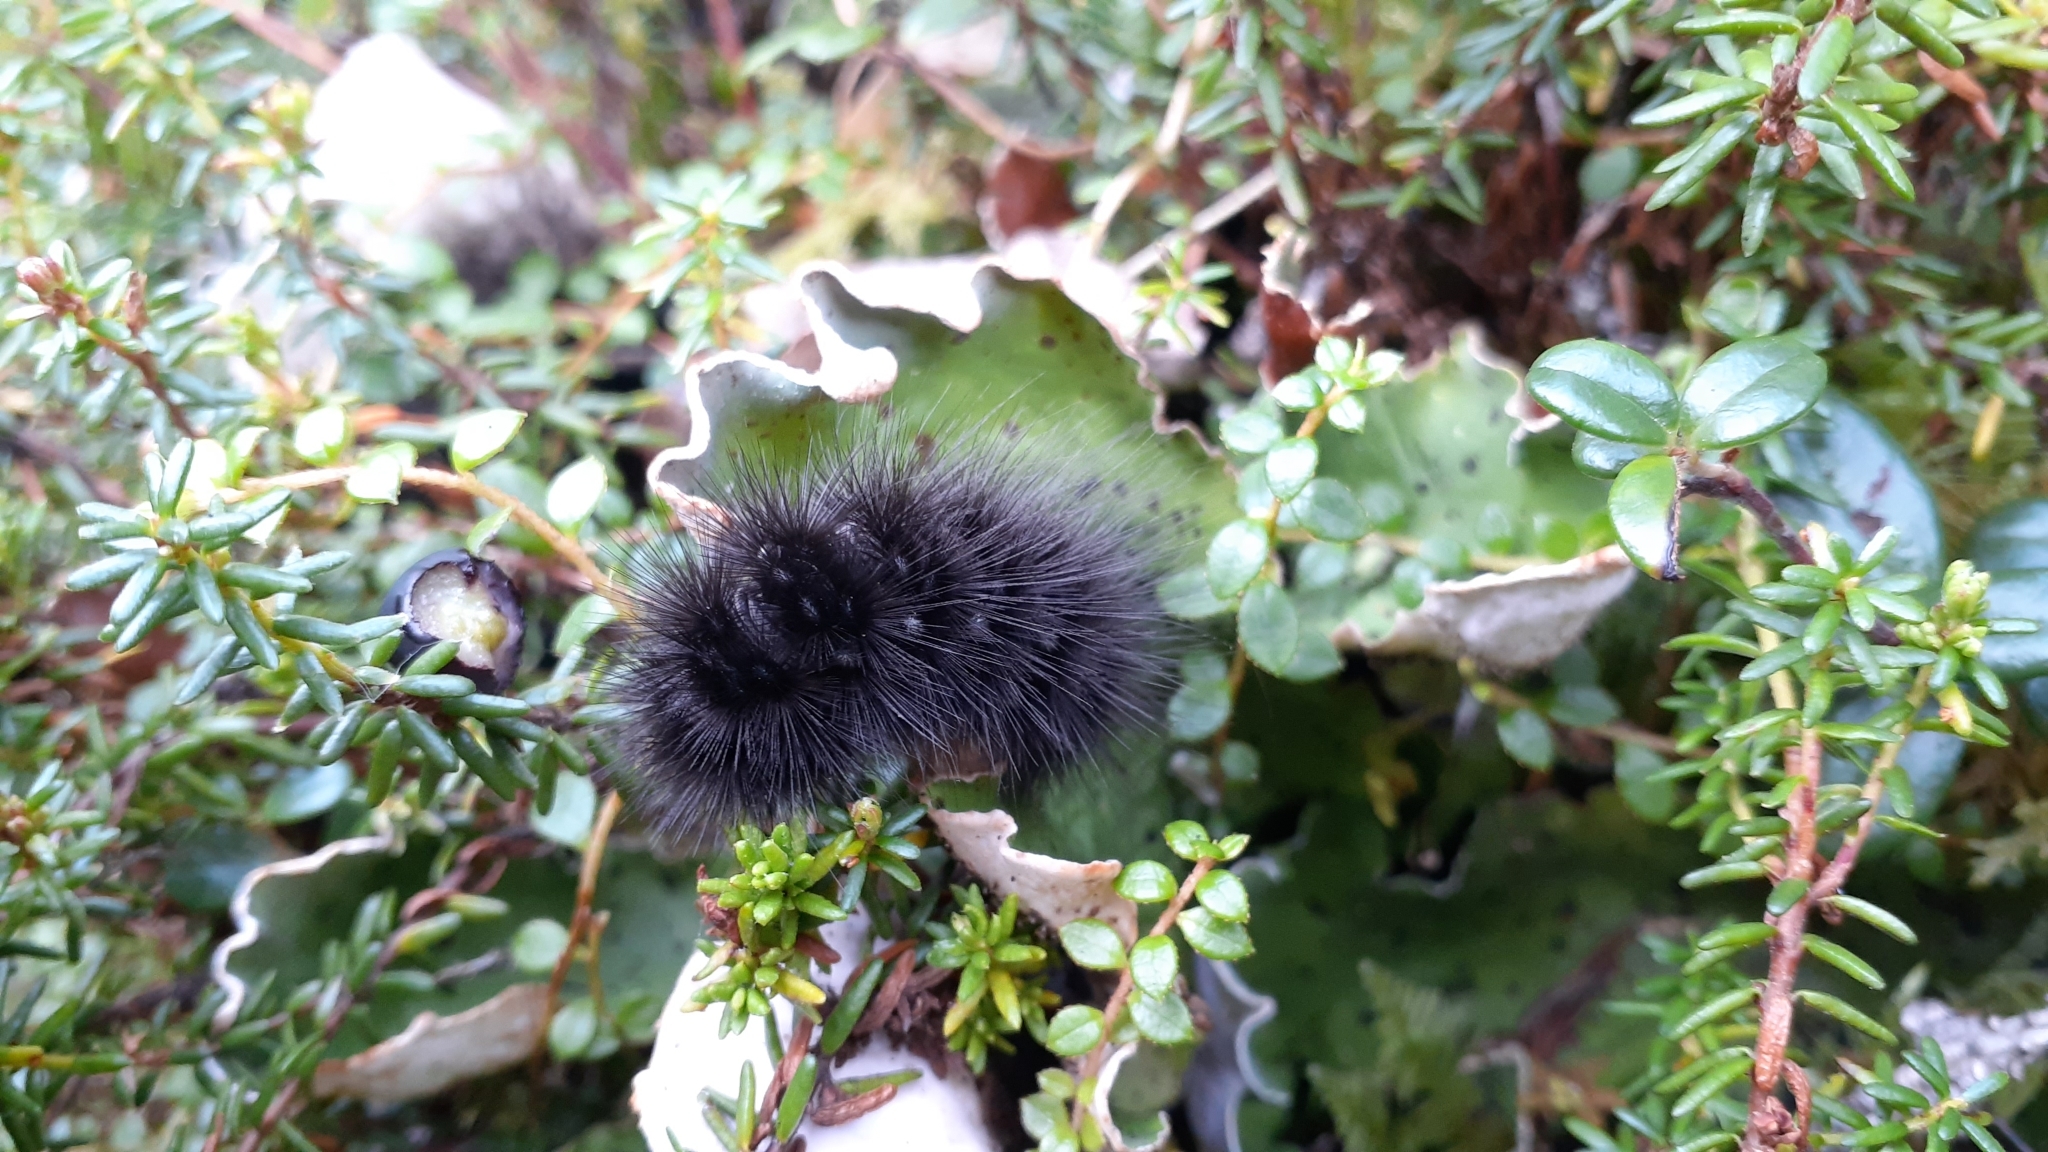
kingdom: Animalia
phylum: Arthropoda
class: Insecta
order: Lepidoptera
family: Erebidae
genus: Arctia
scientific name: Arctia parthenos
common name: St. lawrence tiger moth
